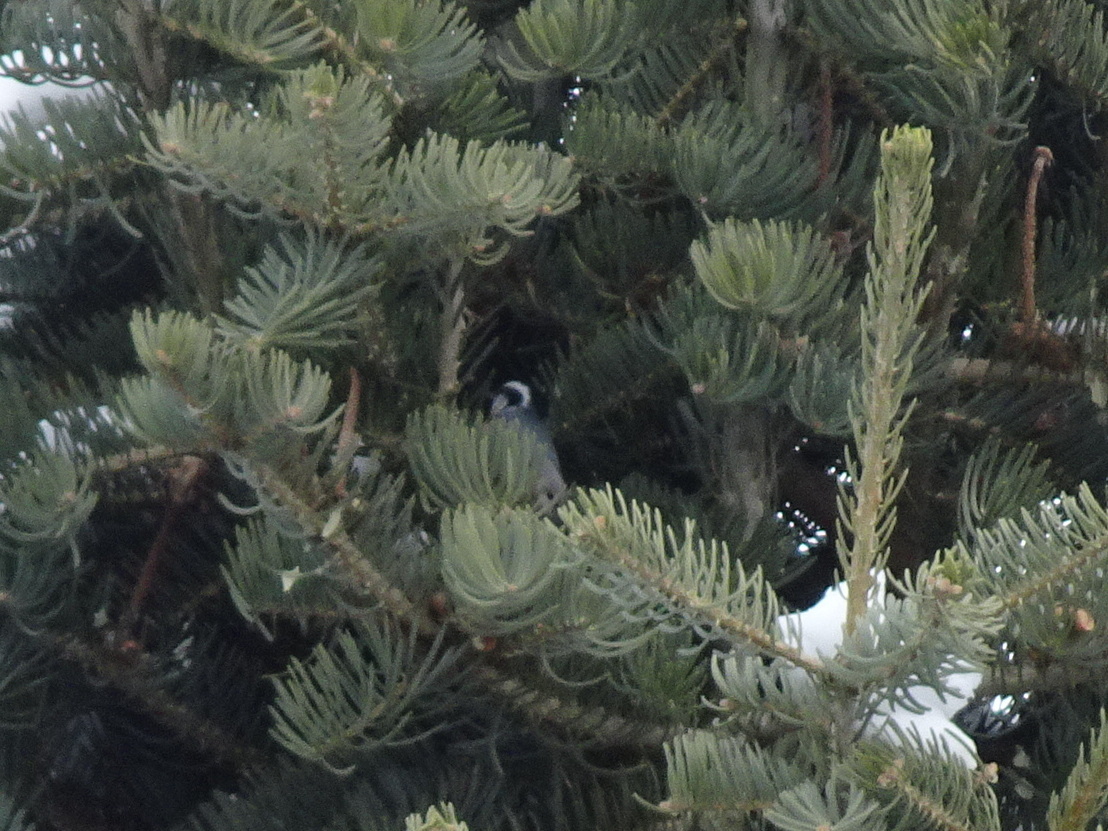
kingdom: Animalia
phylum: Chordata
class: Aves
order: Passeriformes
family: Sittidae
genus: Sitta
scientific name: Sitta canadensis
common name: Red-breasted nuthatch
